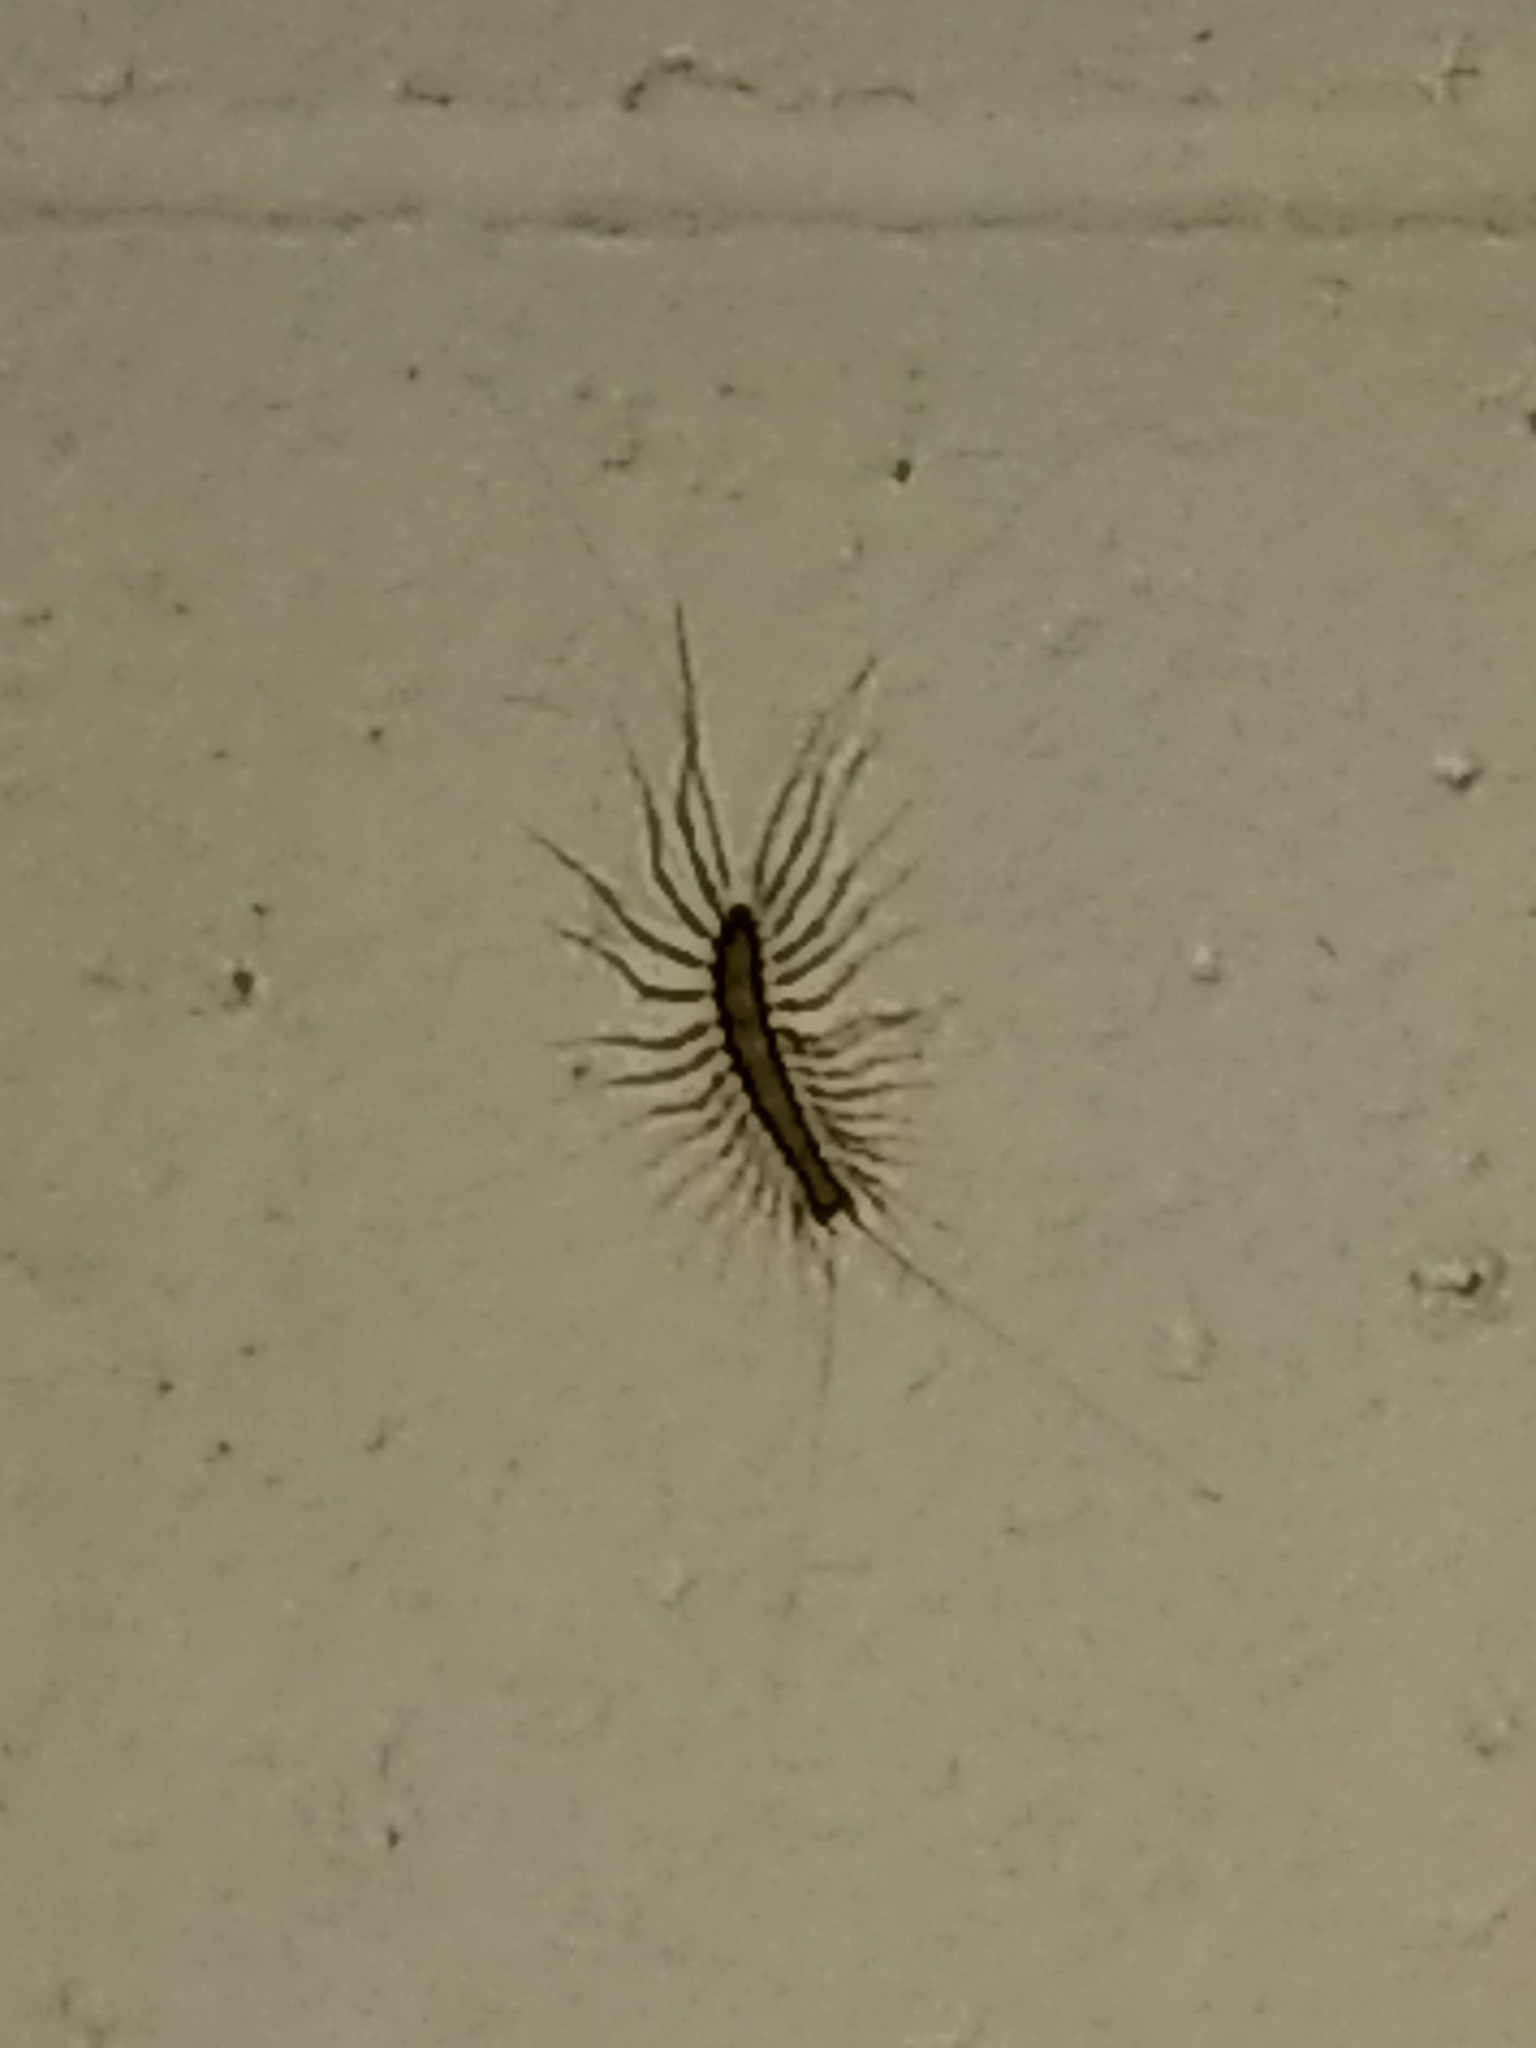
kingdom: Animalia
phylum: Arthropoda
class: Chilopoda
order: Scutigeromorpha
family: Scutigeridae
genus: Scutigera
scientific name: Scutigera coleoptrata
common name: House centipede
